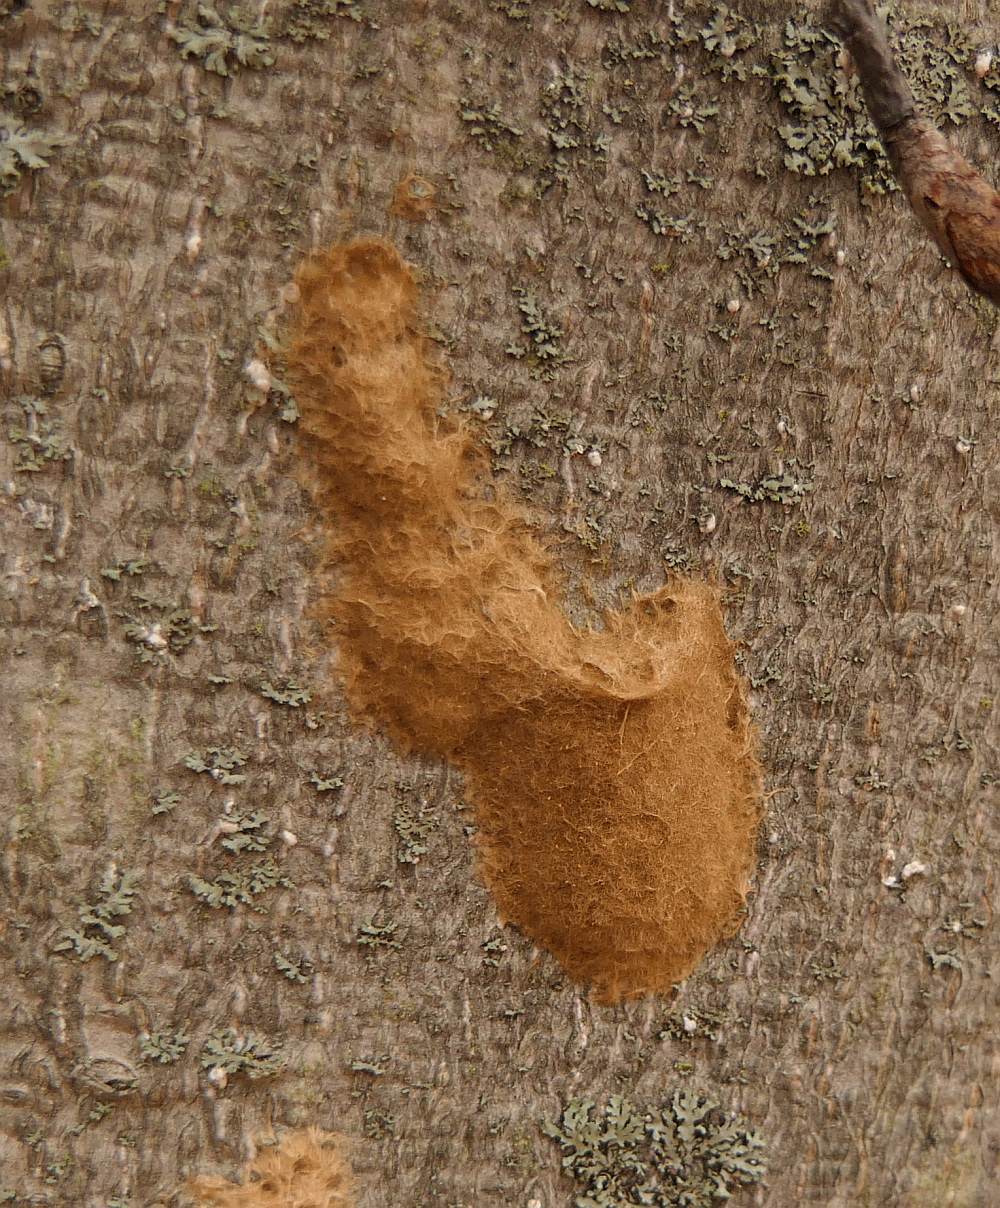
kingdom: Animalia
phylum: Arthropoda
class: Insecta
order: Lepidoptera
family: Erebidae
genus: Lymantria
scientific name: Lymantria dispar
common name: Gypsy moth
